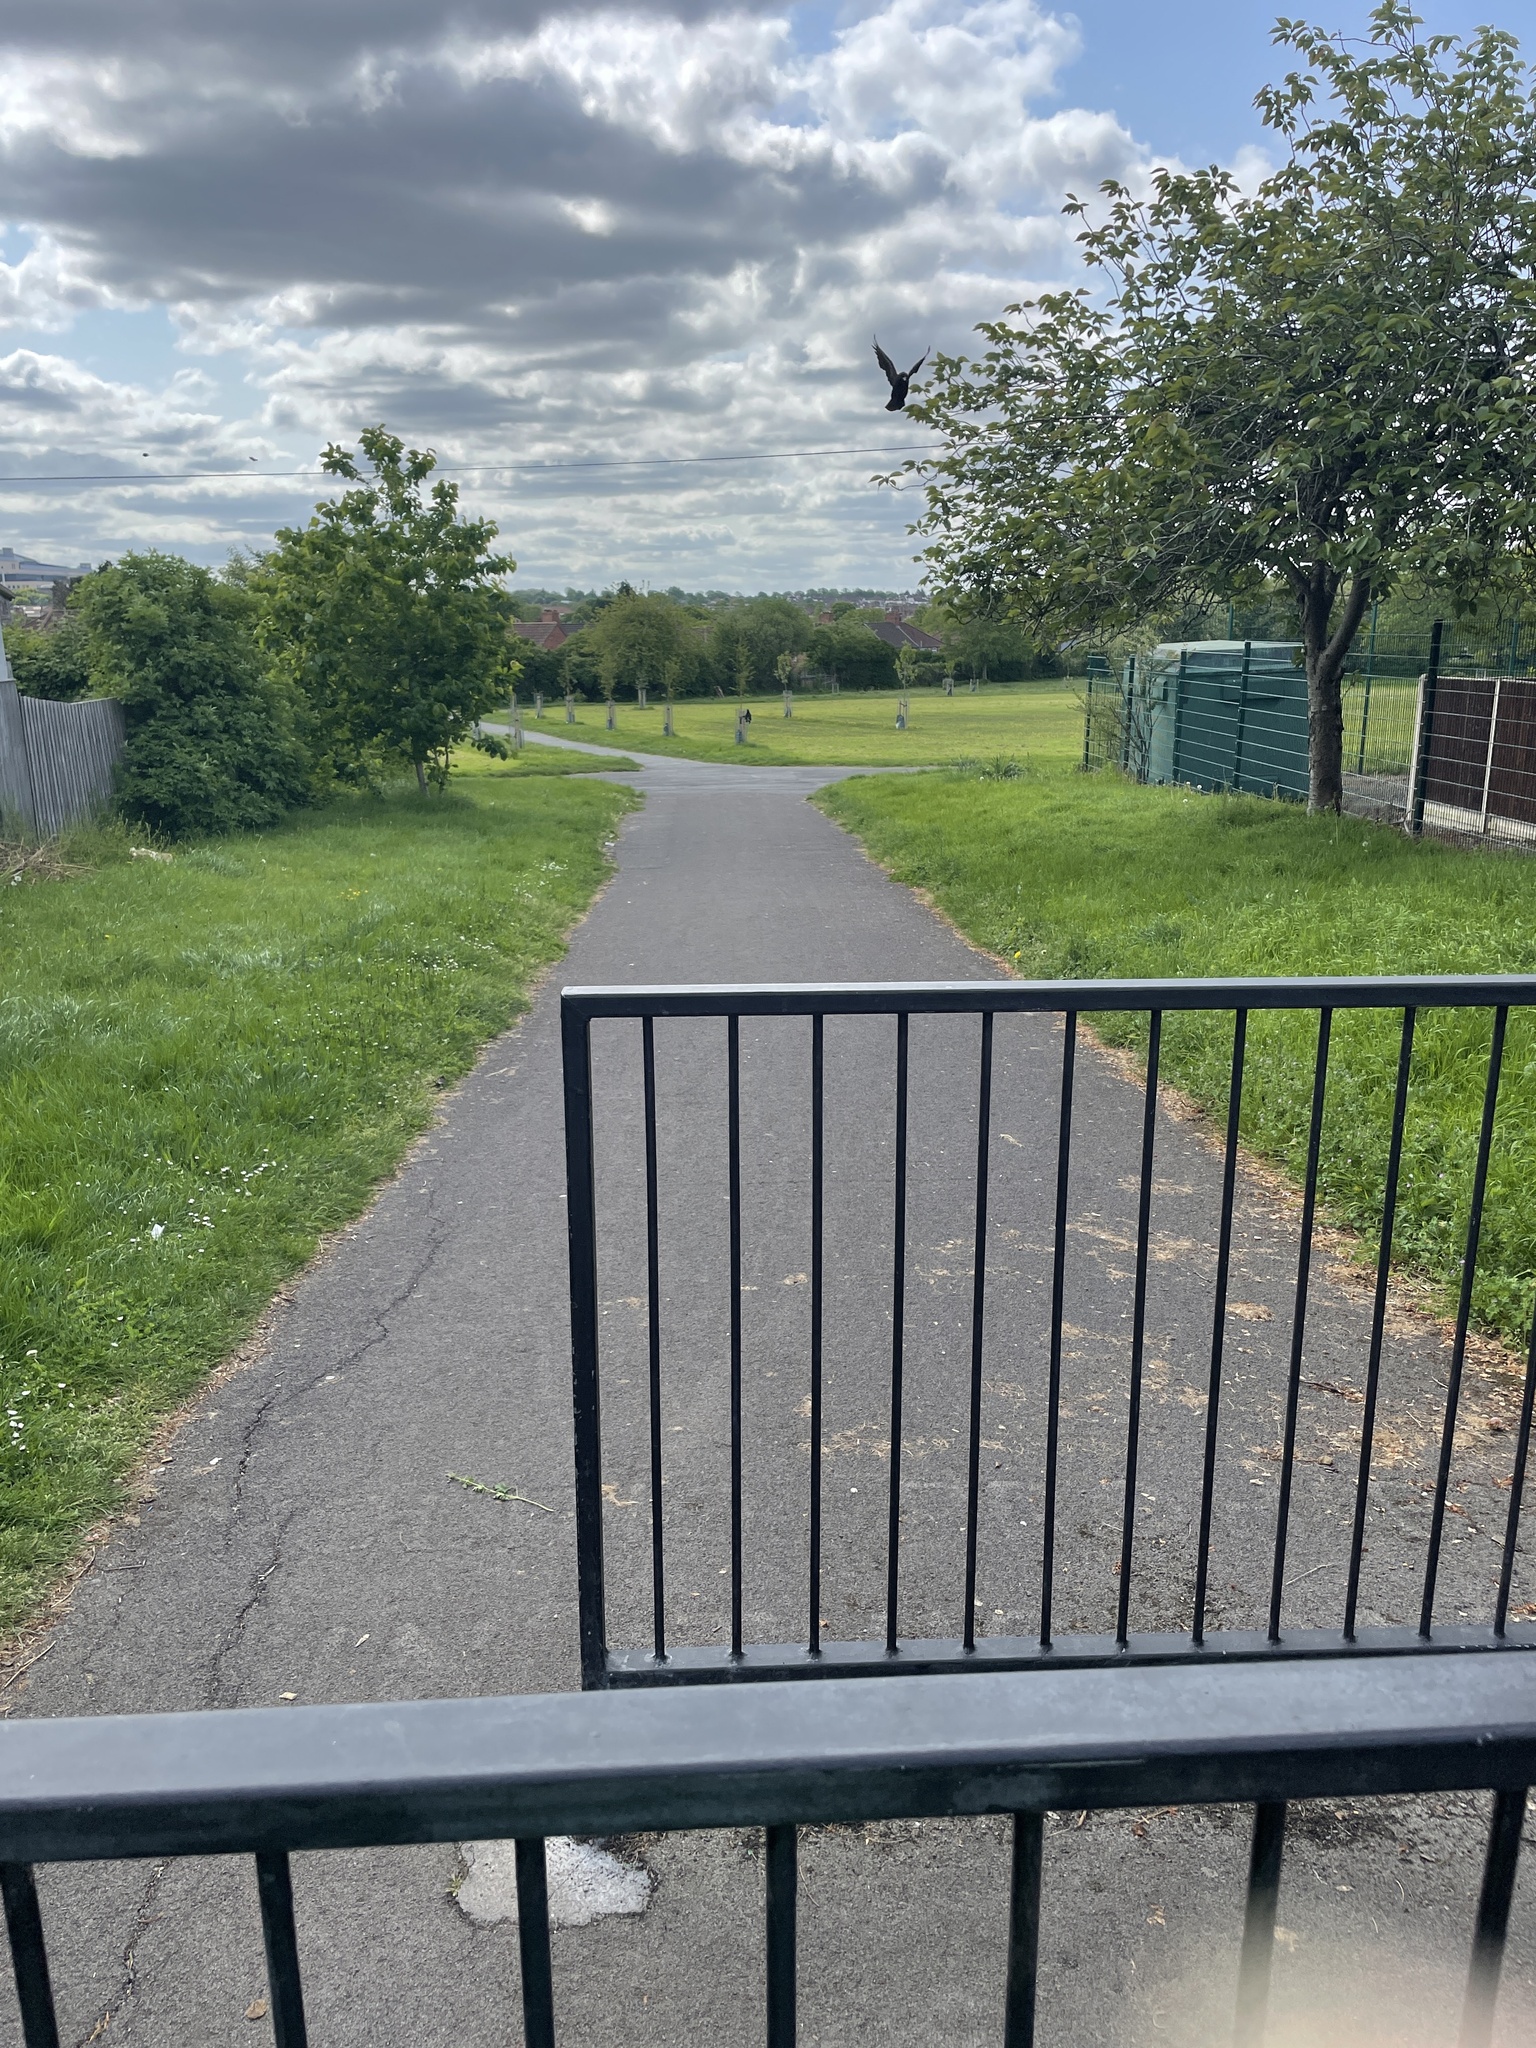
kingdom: Animalia
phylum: Chordata
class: Aves
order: Passeriformes
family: Corvidae
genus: Corvus
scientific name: Corvus corone
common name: Carrion crow
